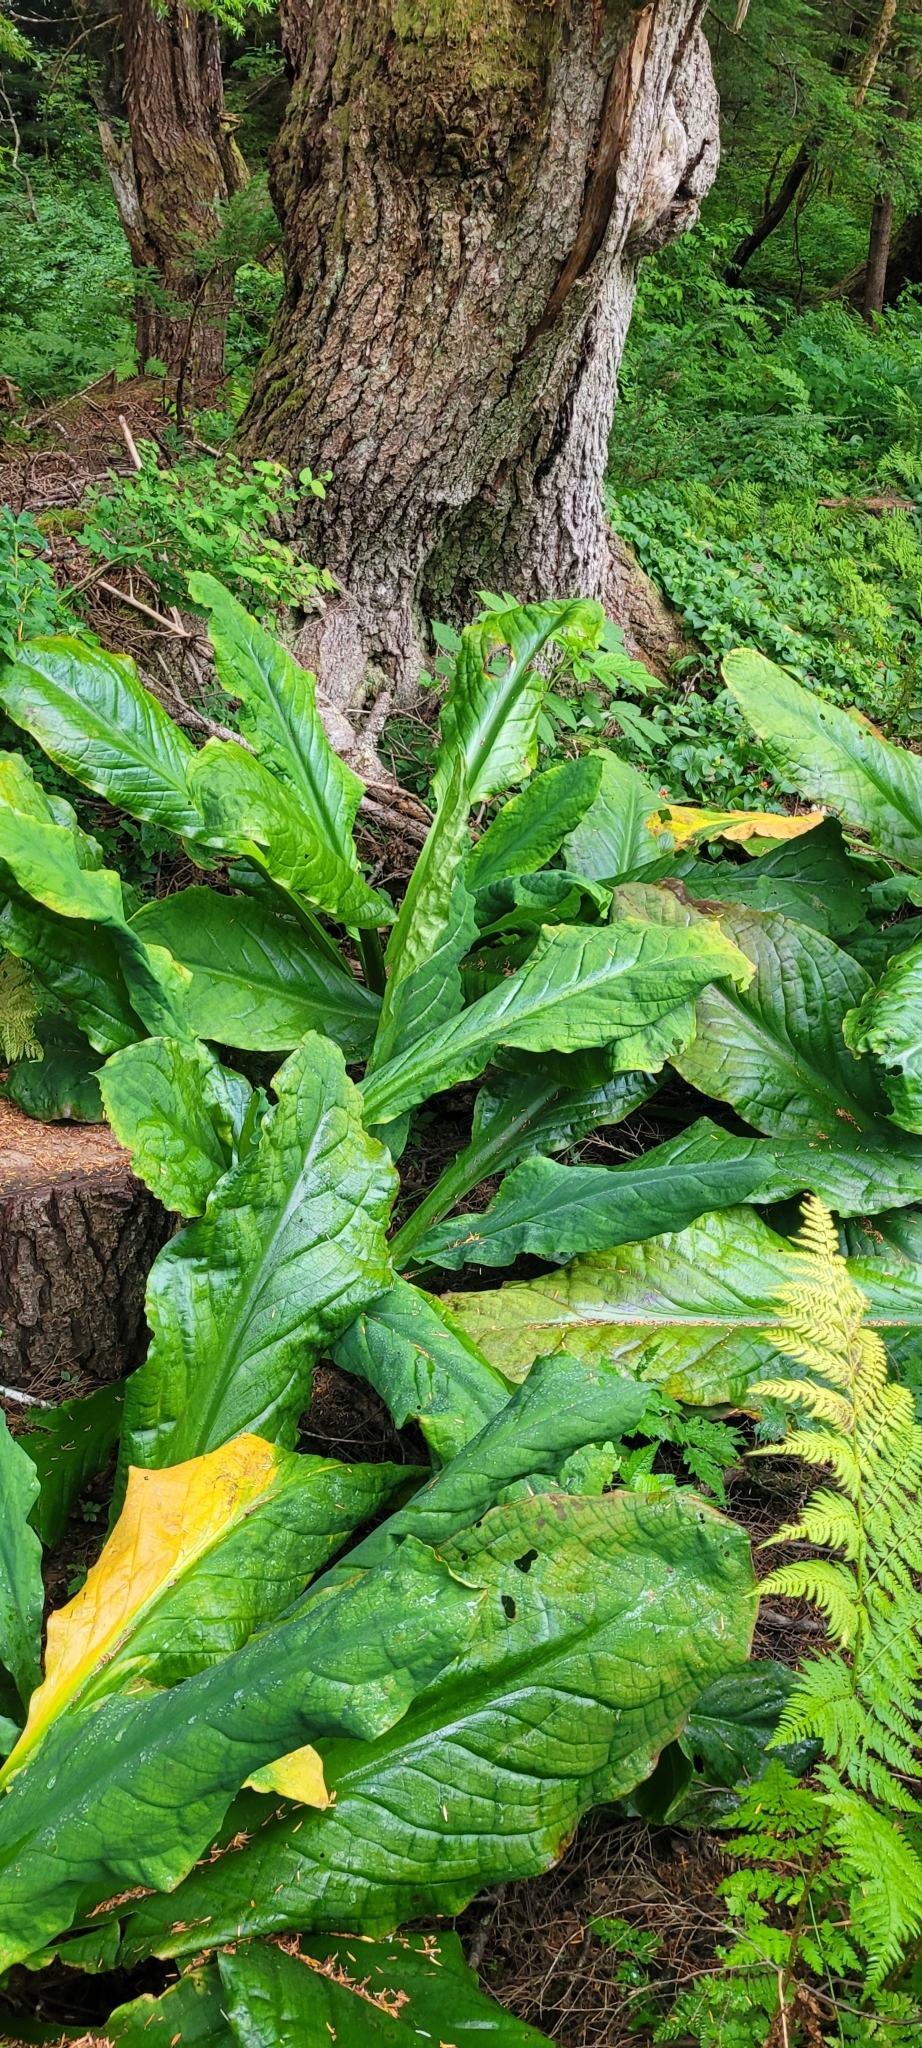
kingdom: Plantae
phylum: Tracheophyta
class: Liliopsida
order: Alismatales
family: Araceae
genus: Lysichiton
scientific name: Lysichiton americanus
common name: American skunk cabbage
